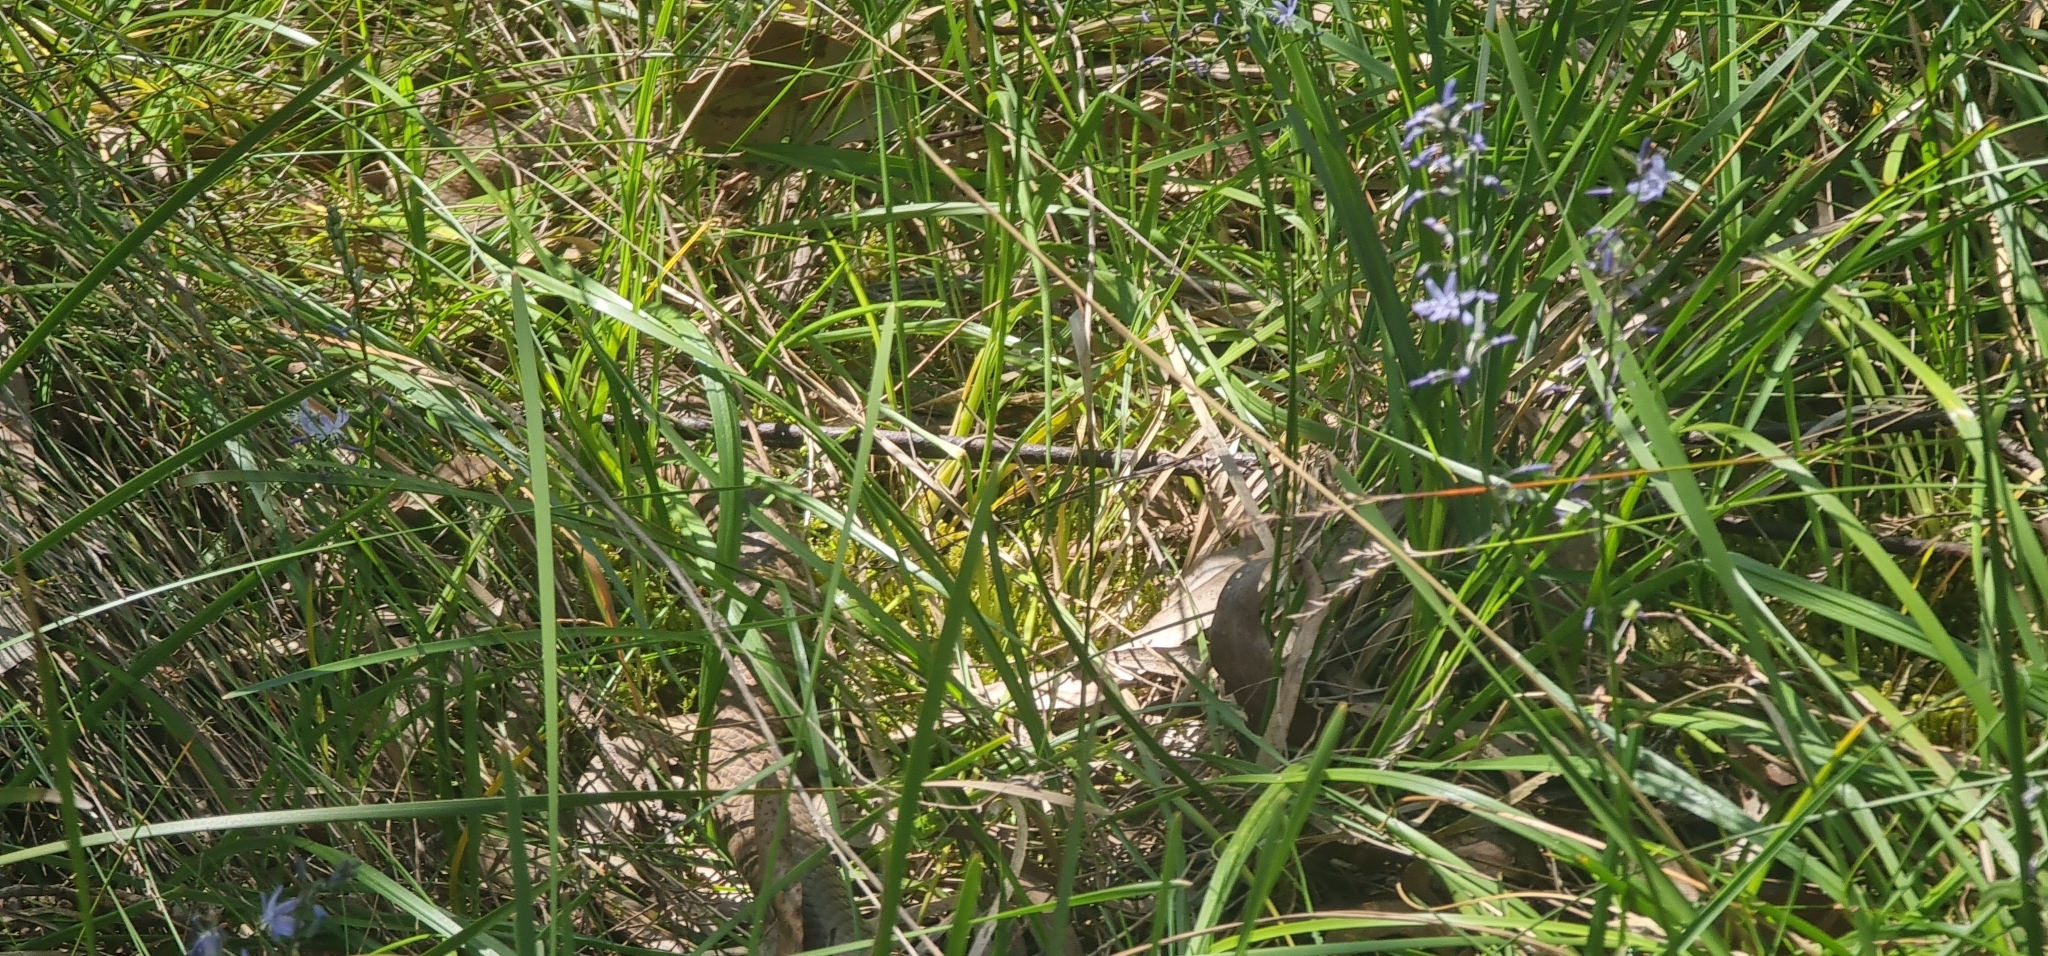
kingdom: Animalia
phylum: Chordata
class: Squamata
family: Elapidae
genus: Pseudonaja
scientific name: Pseudonaja textilis
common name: Eastern brown snake
